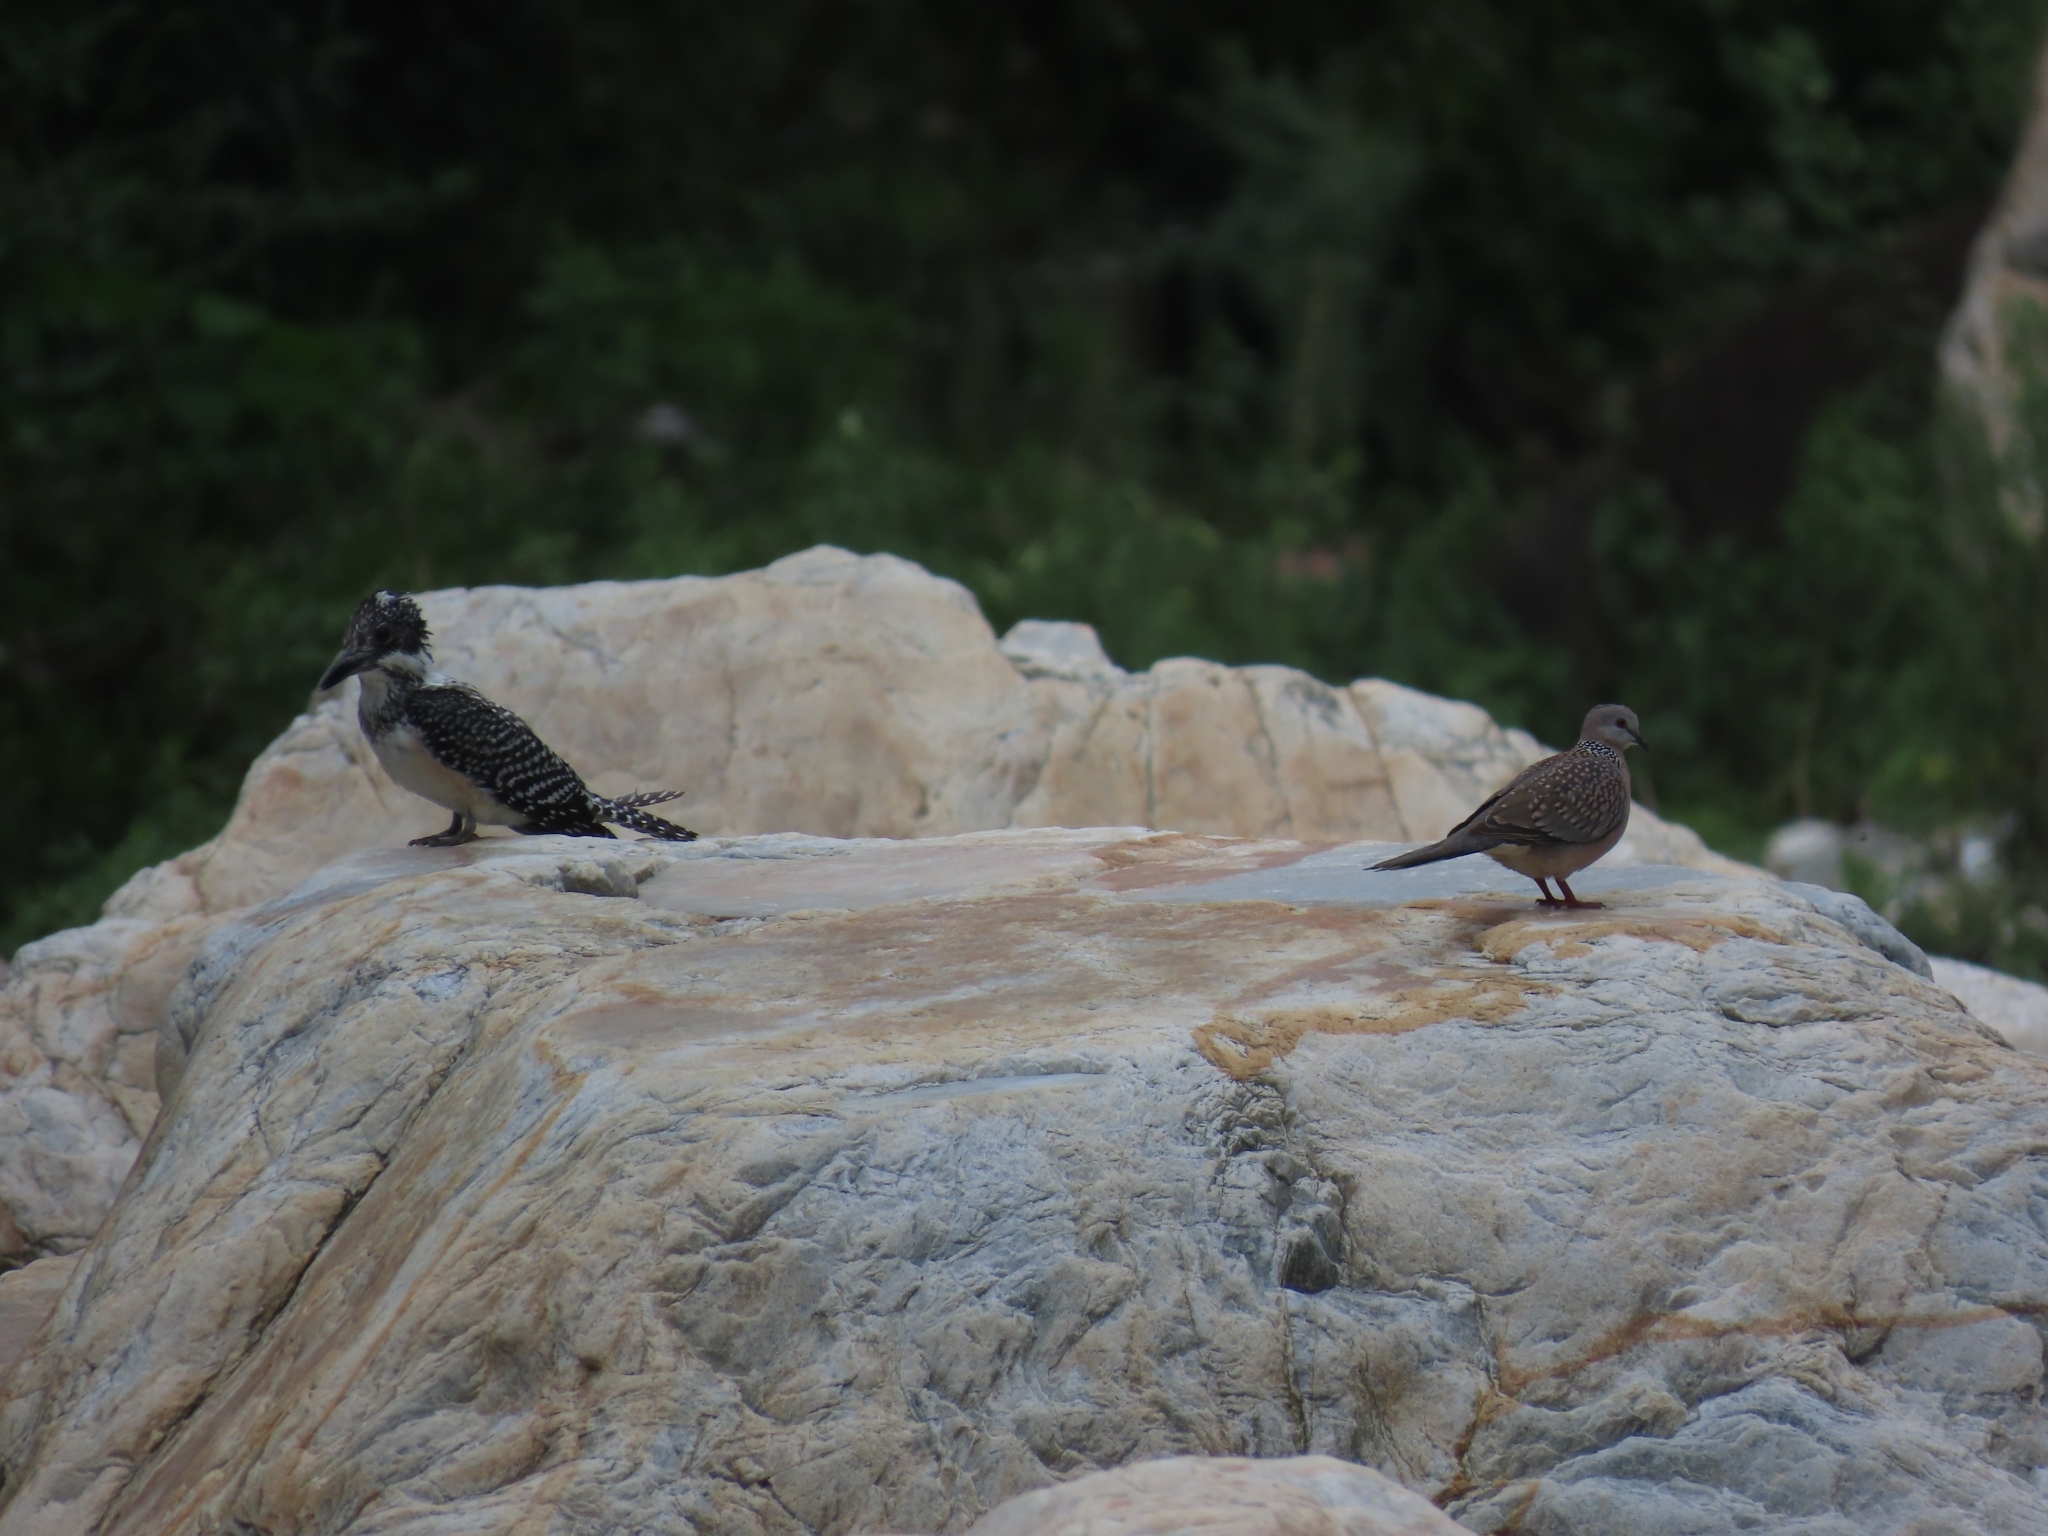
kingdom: Animalia
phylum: Chordata
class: Aves
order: Columbiformes
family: Columbidae
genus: Spilopelia
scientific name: Spilopelia chinensis
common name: Spotted dove
